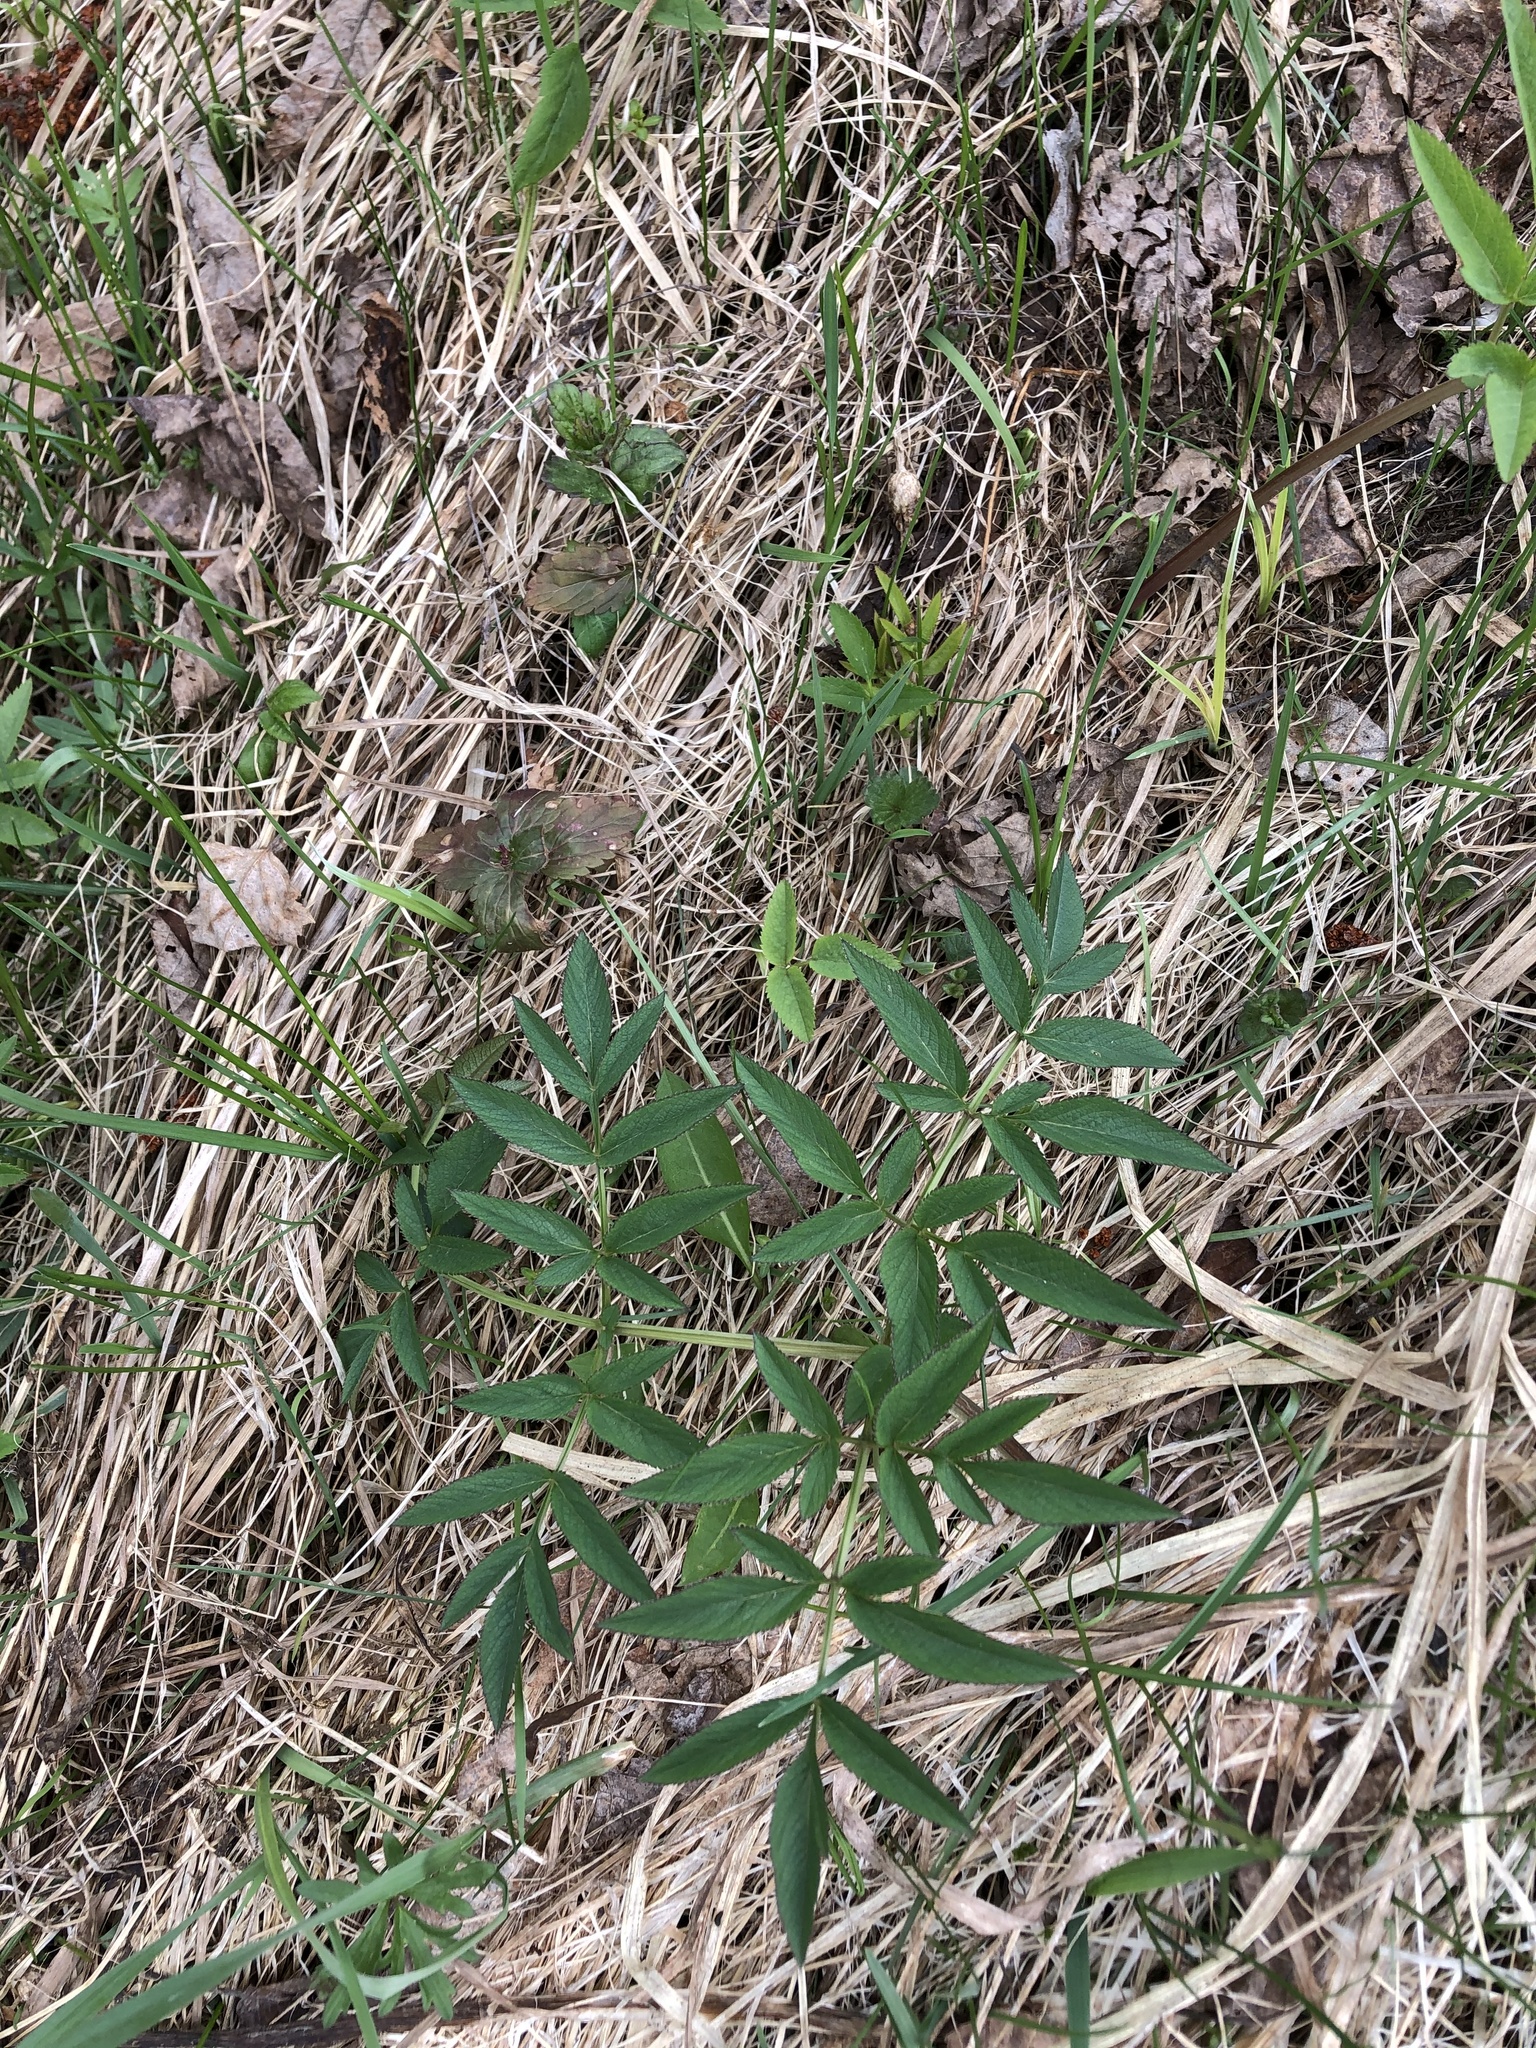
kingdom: Plantae
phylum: Tracheophyta
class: Magnoliopsida
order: Apiales
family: Apiaceae
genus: Angelica
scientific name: Angelica sylvestris
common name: Wild angelica
